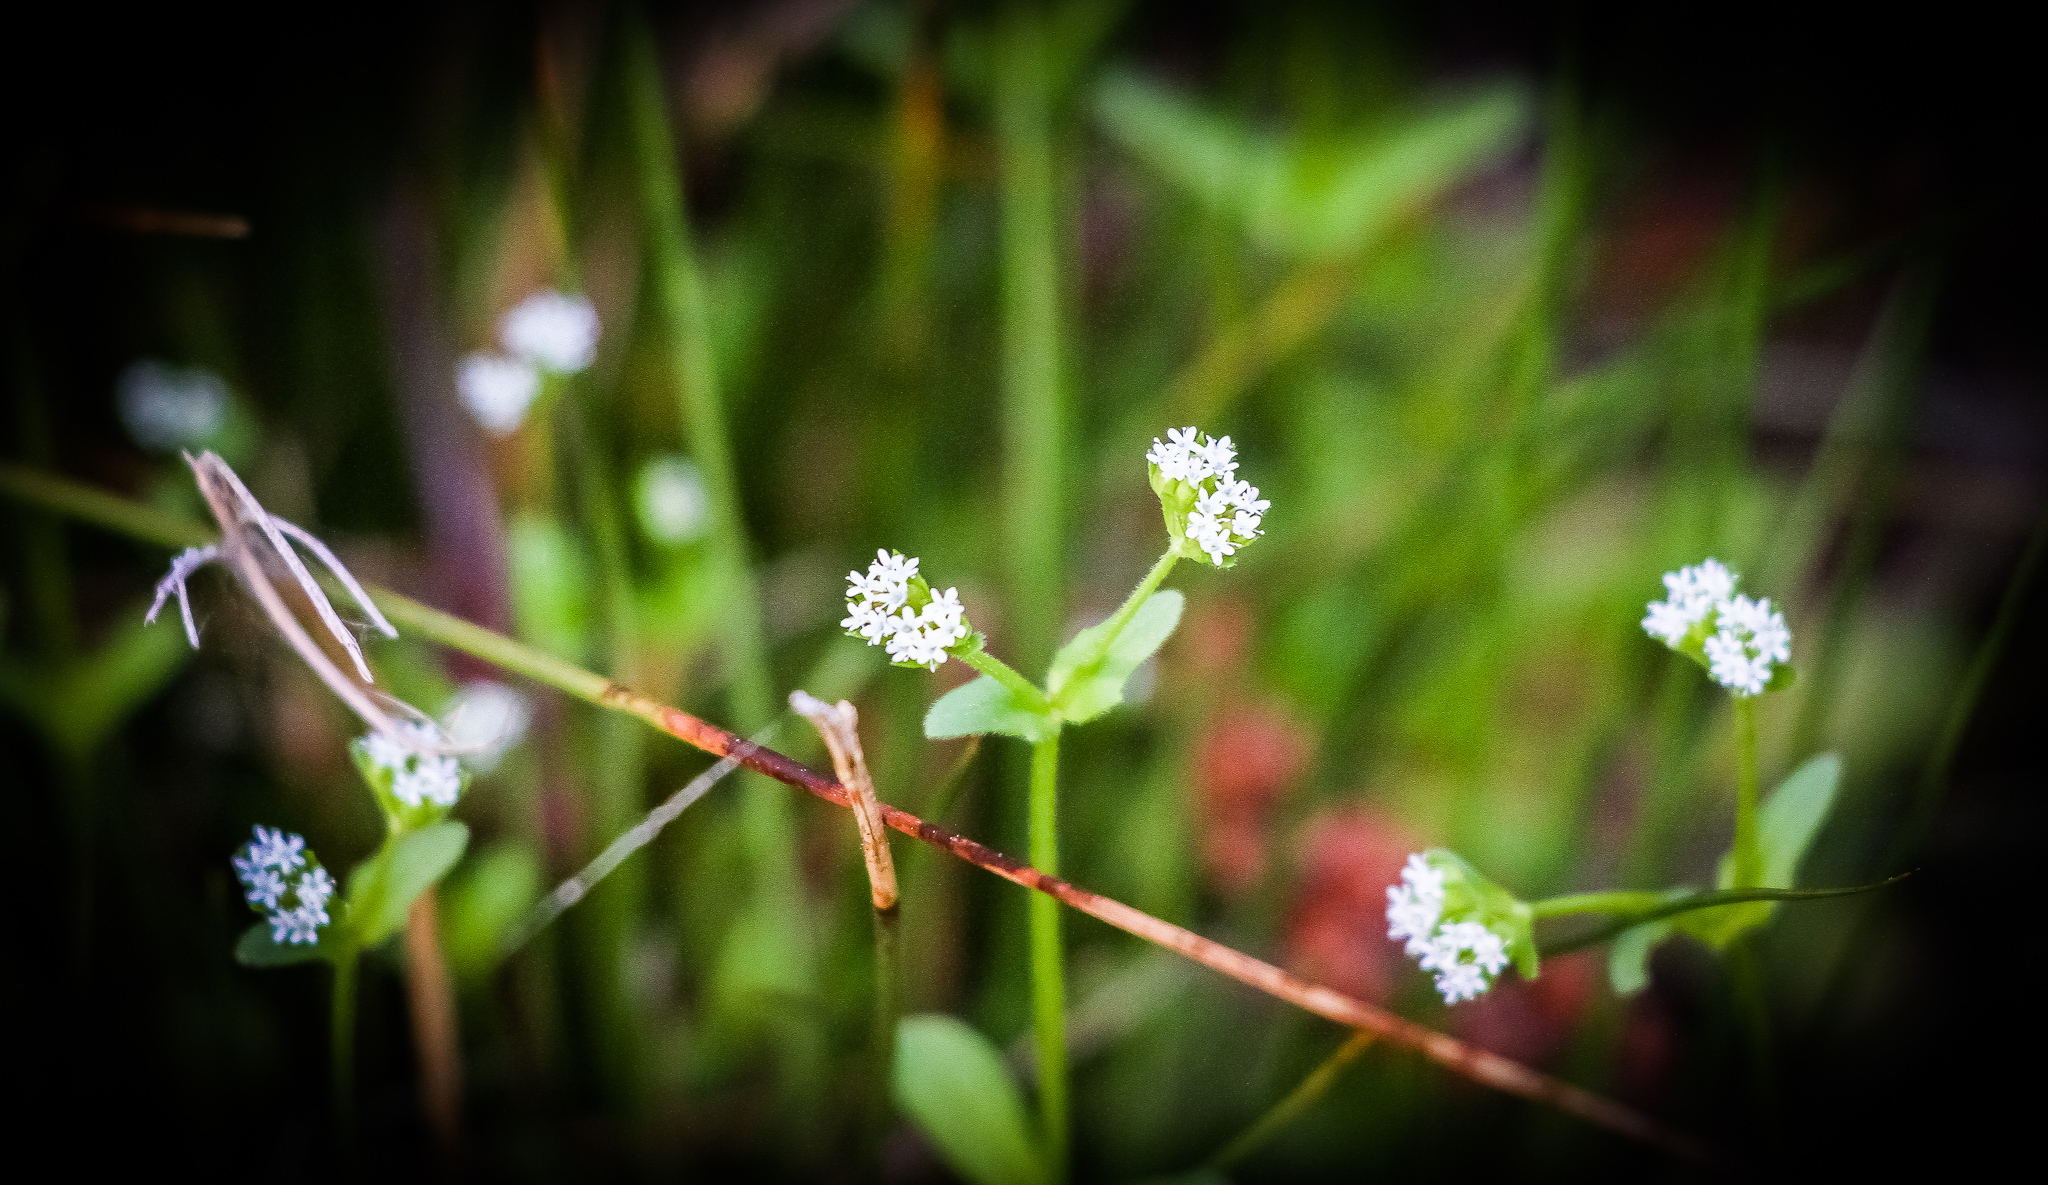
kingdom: Plantae
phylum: Tracheophyta
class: Magnoliopsida
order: Dipsacales
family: Caprifoliaceae
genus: Valerianella
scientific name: Valerianella radiata
